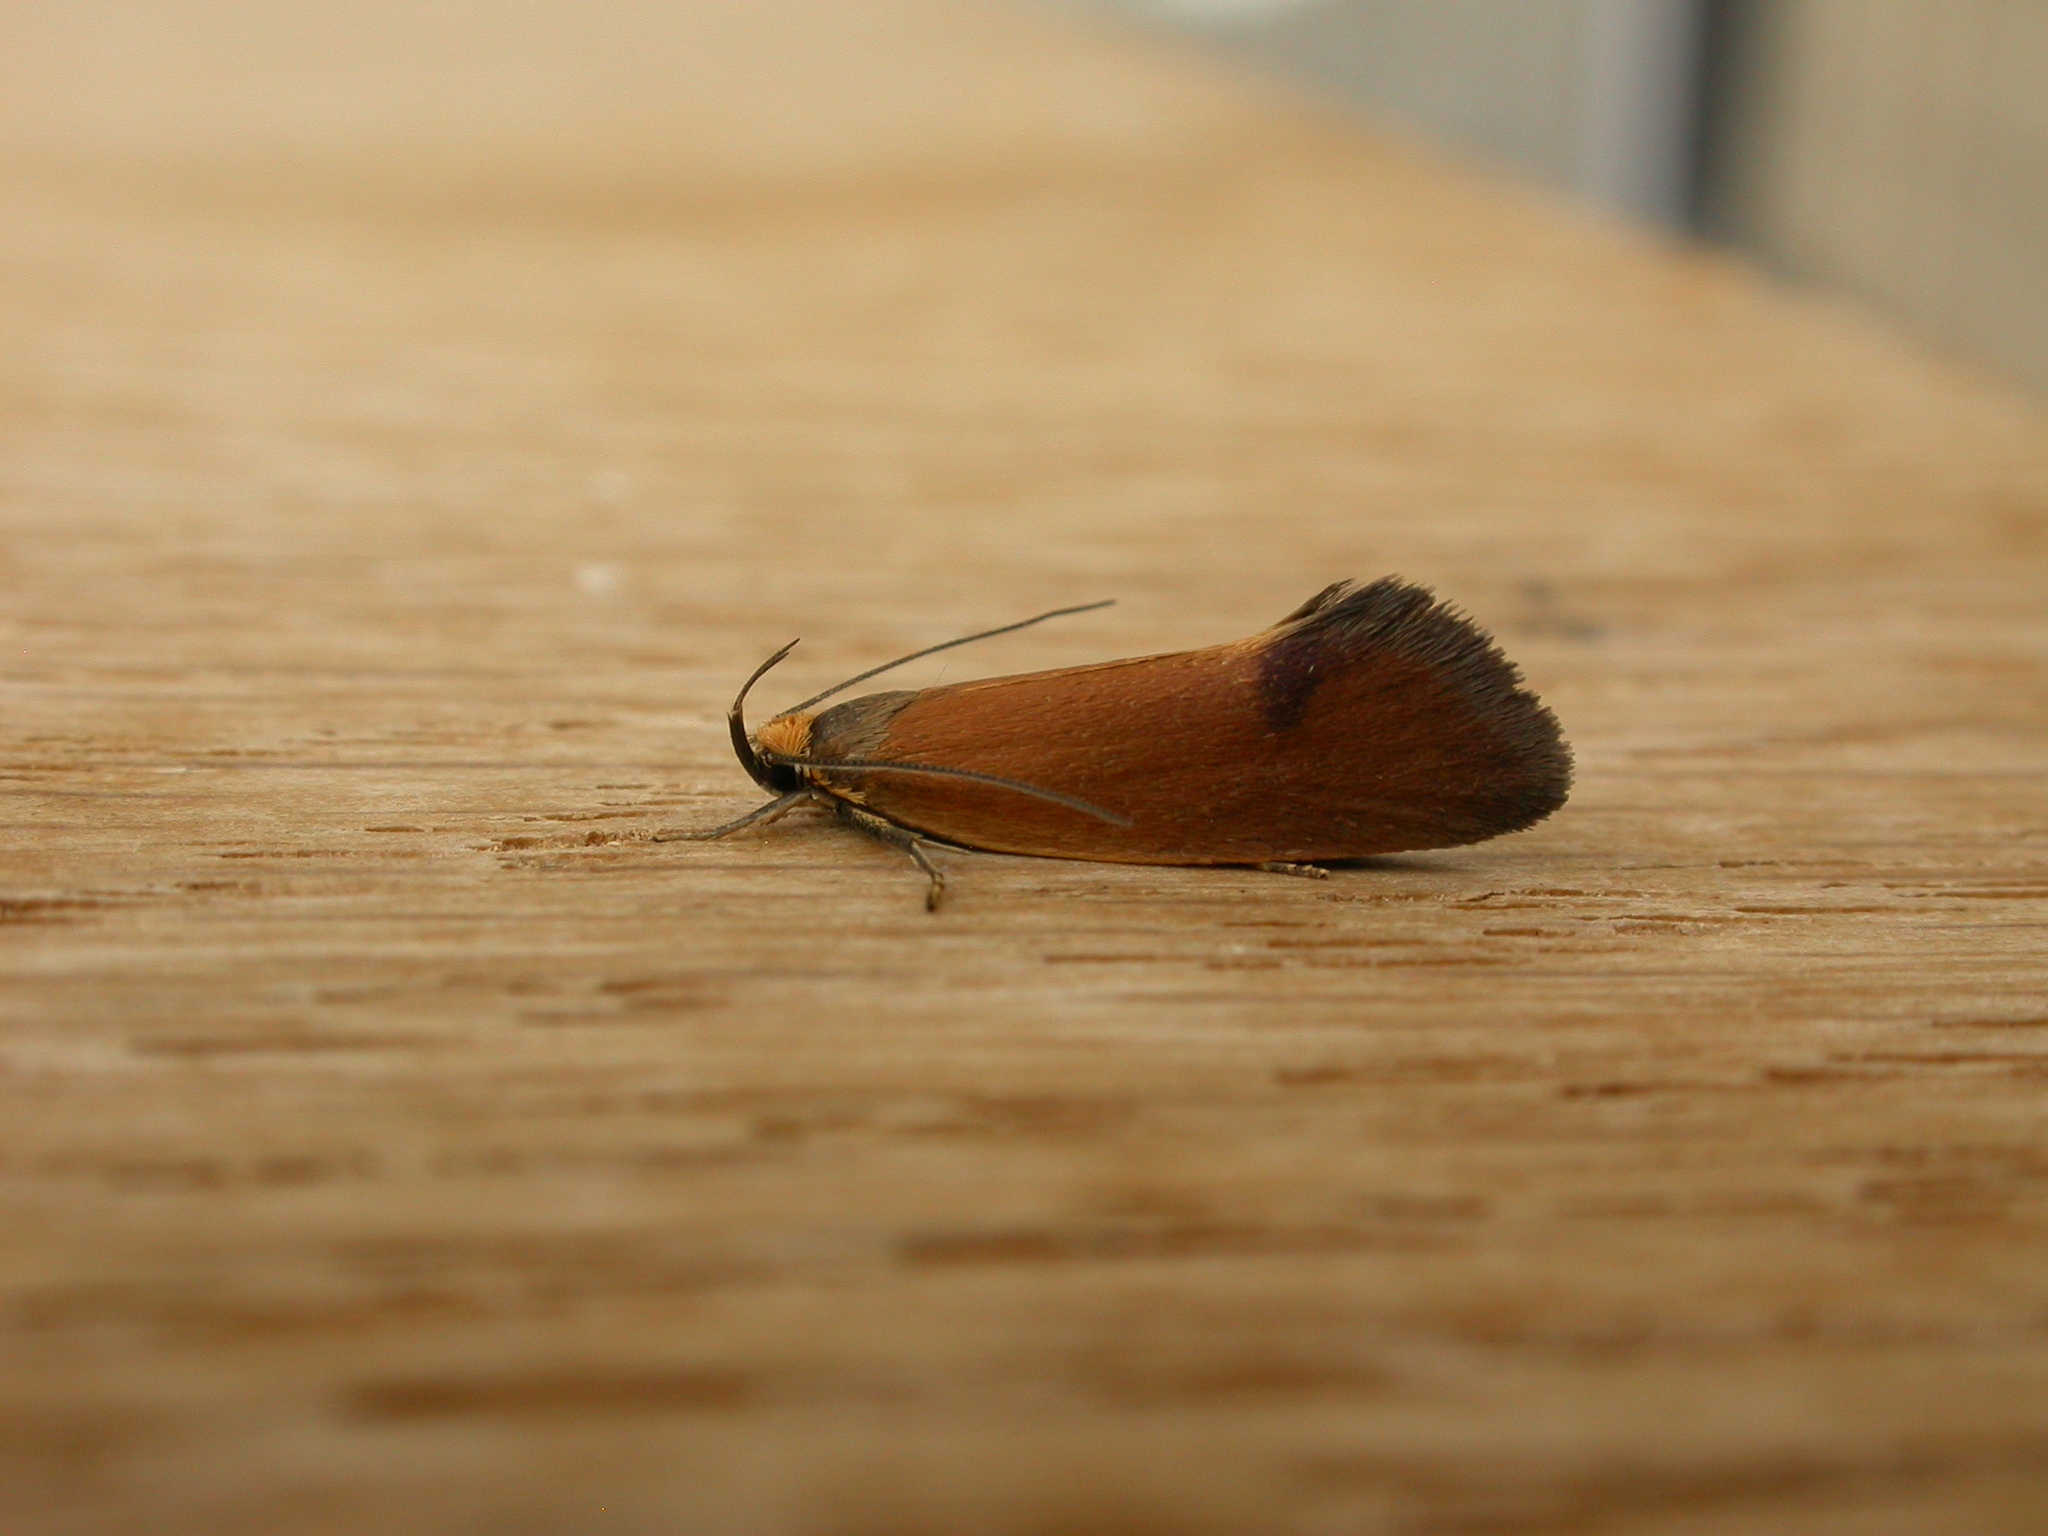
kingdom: Animalia
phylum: Arthropoda
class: Insecta
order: Lepidoptera
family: Oecophoridae
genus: Delexocha
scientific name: Delexocha ochrocausta
